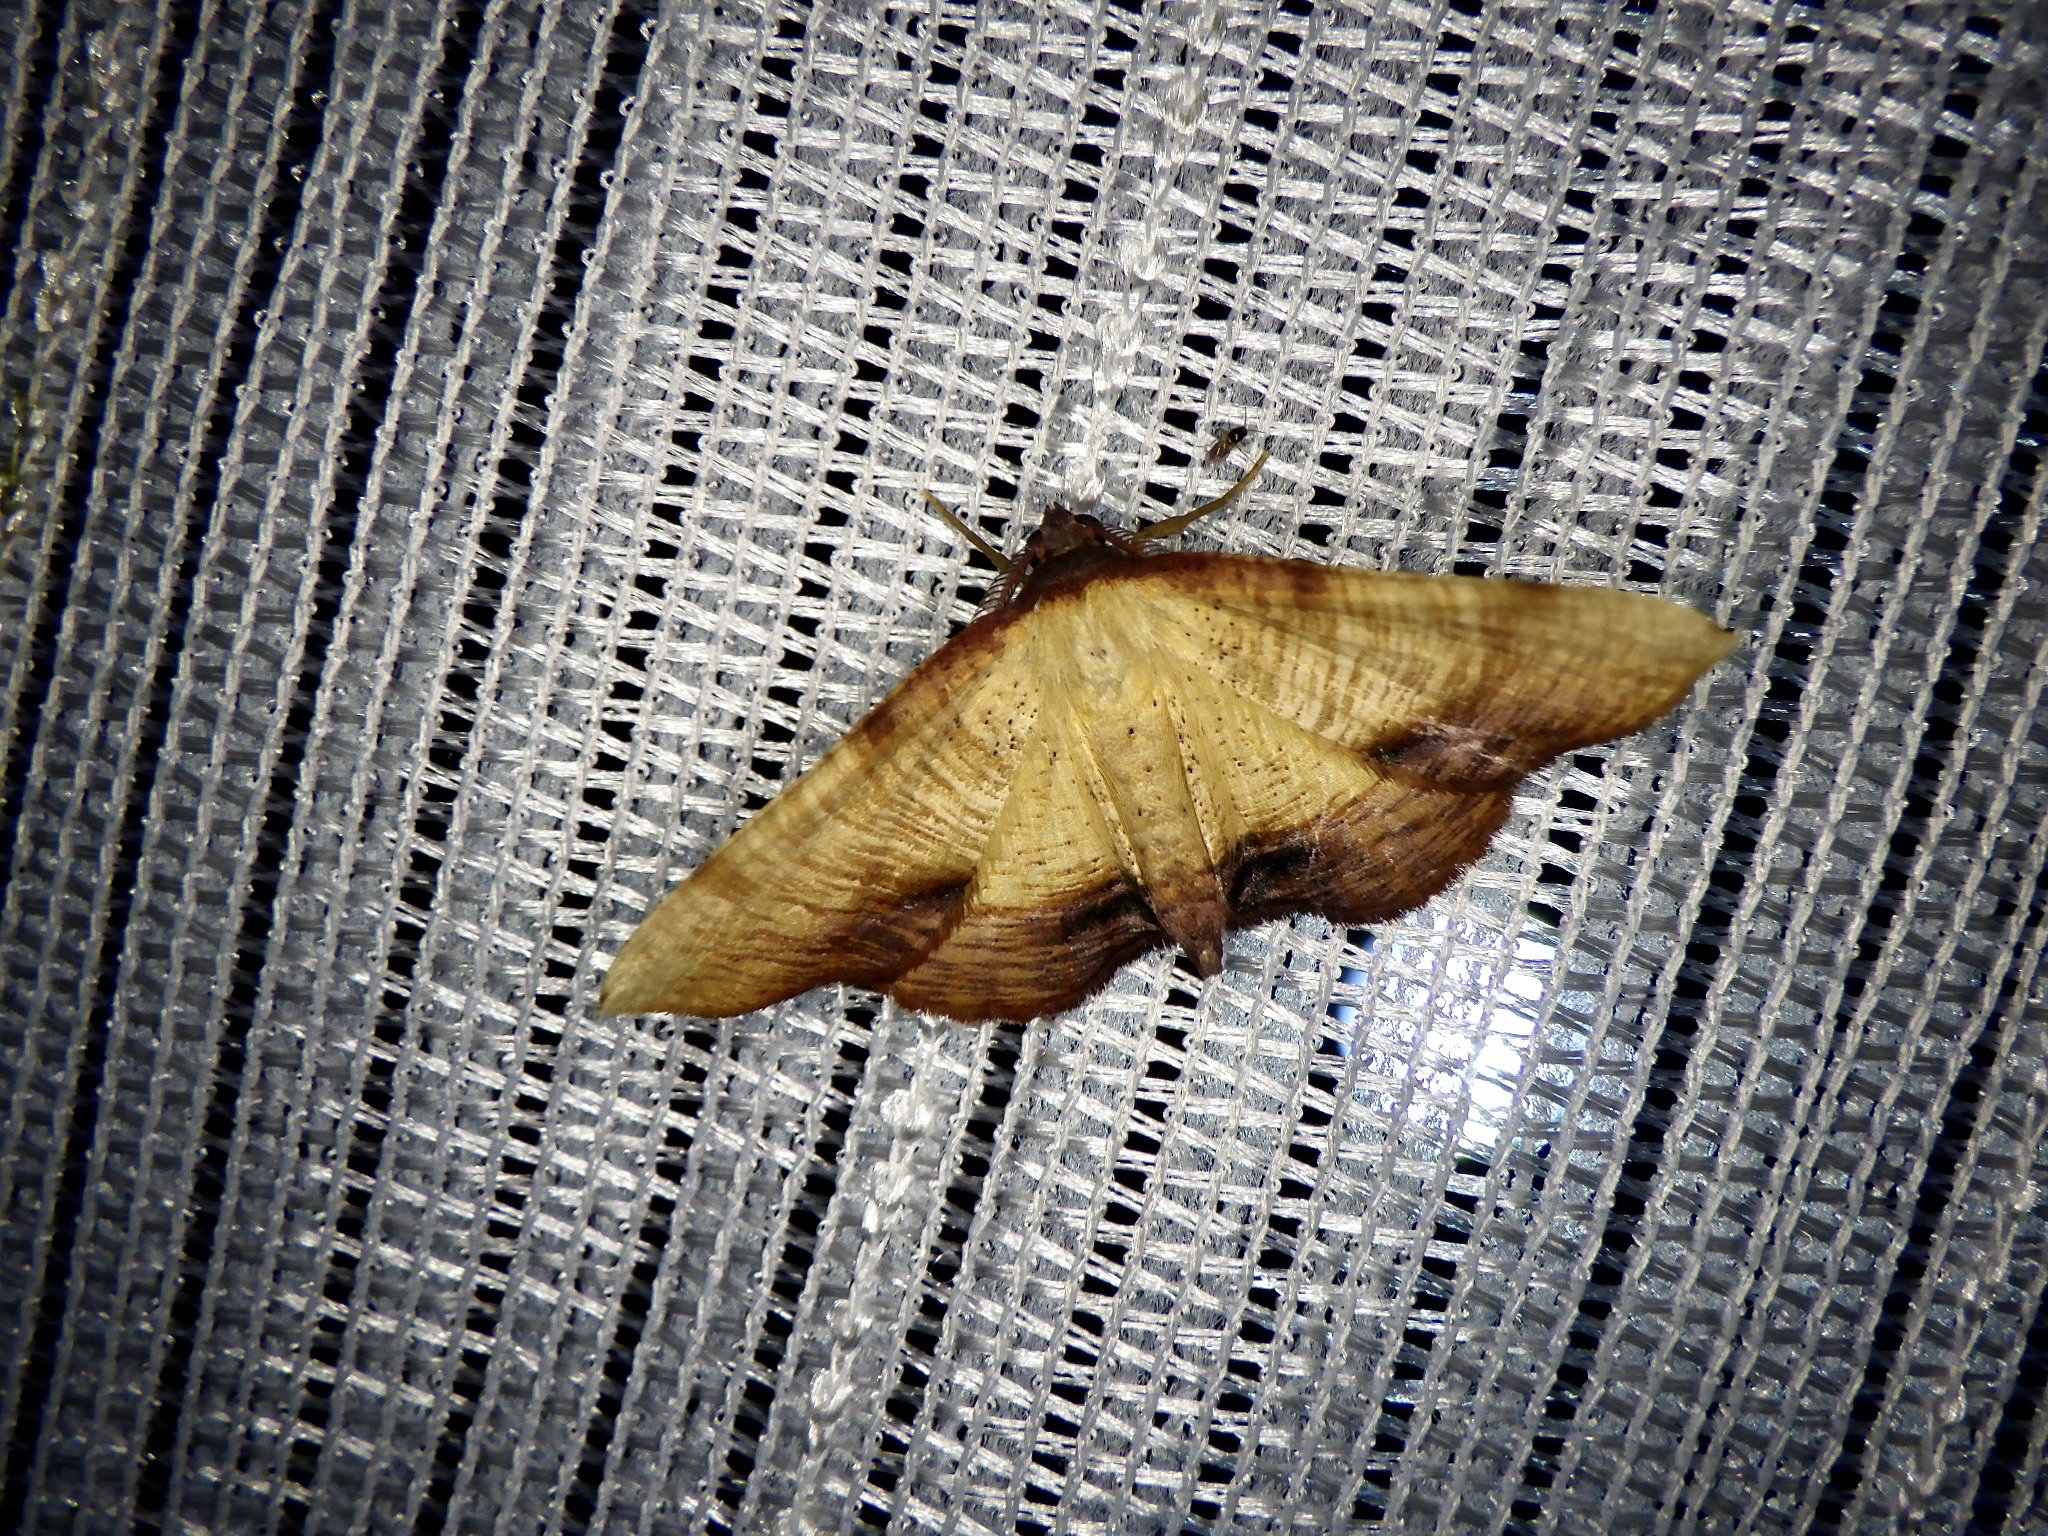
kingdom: Animalia
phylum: Arthropoda
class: Insecta
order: Lepidoptera
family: Geometridae
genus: Plagodis
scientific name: Plagodis dolabraria
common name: Scorched wing
